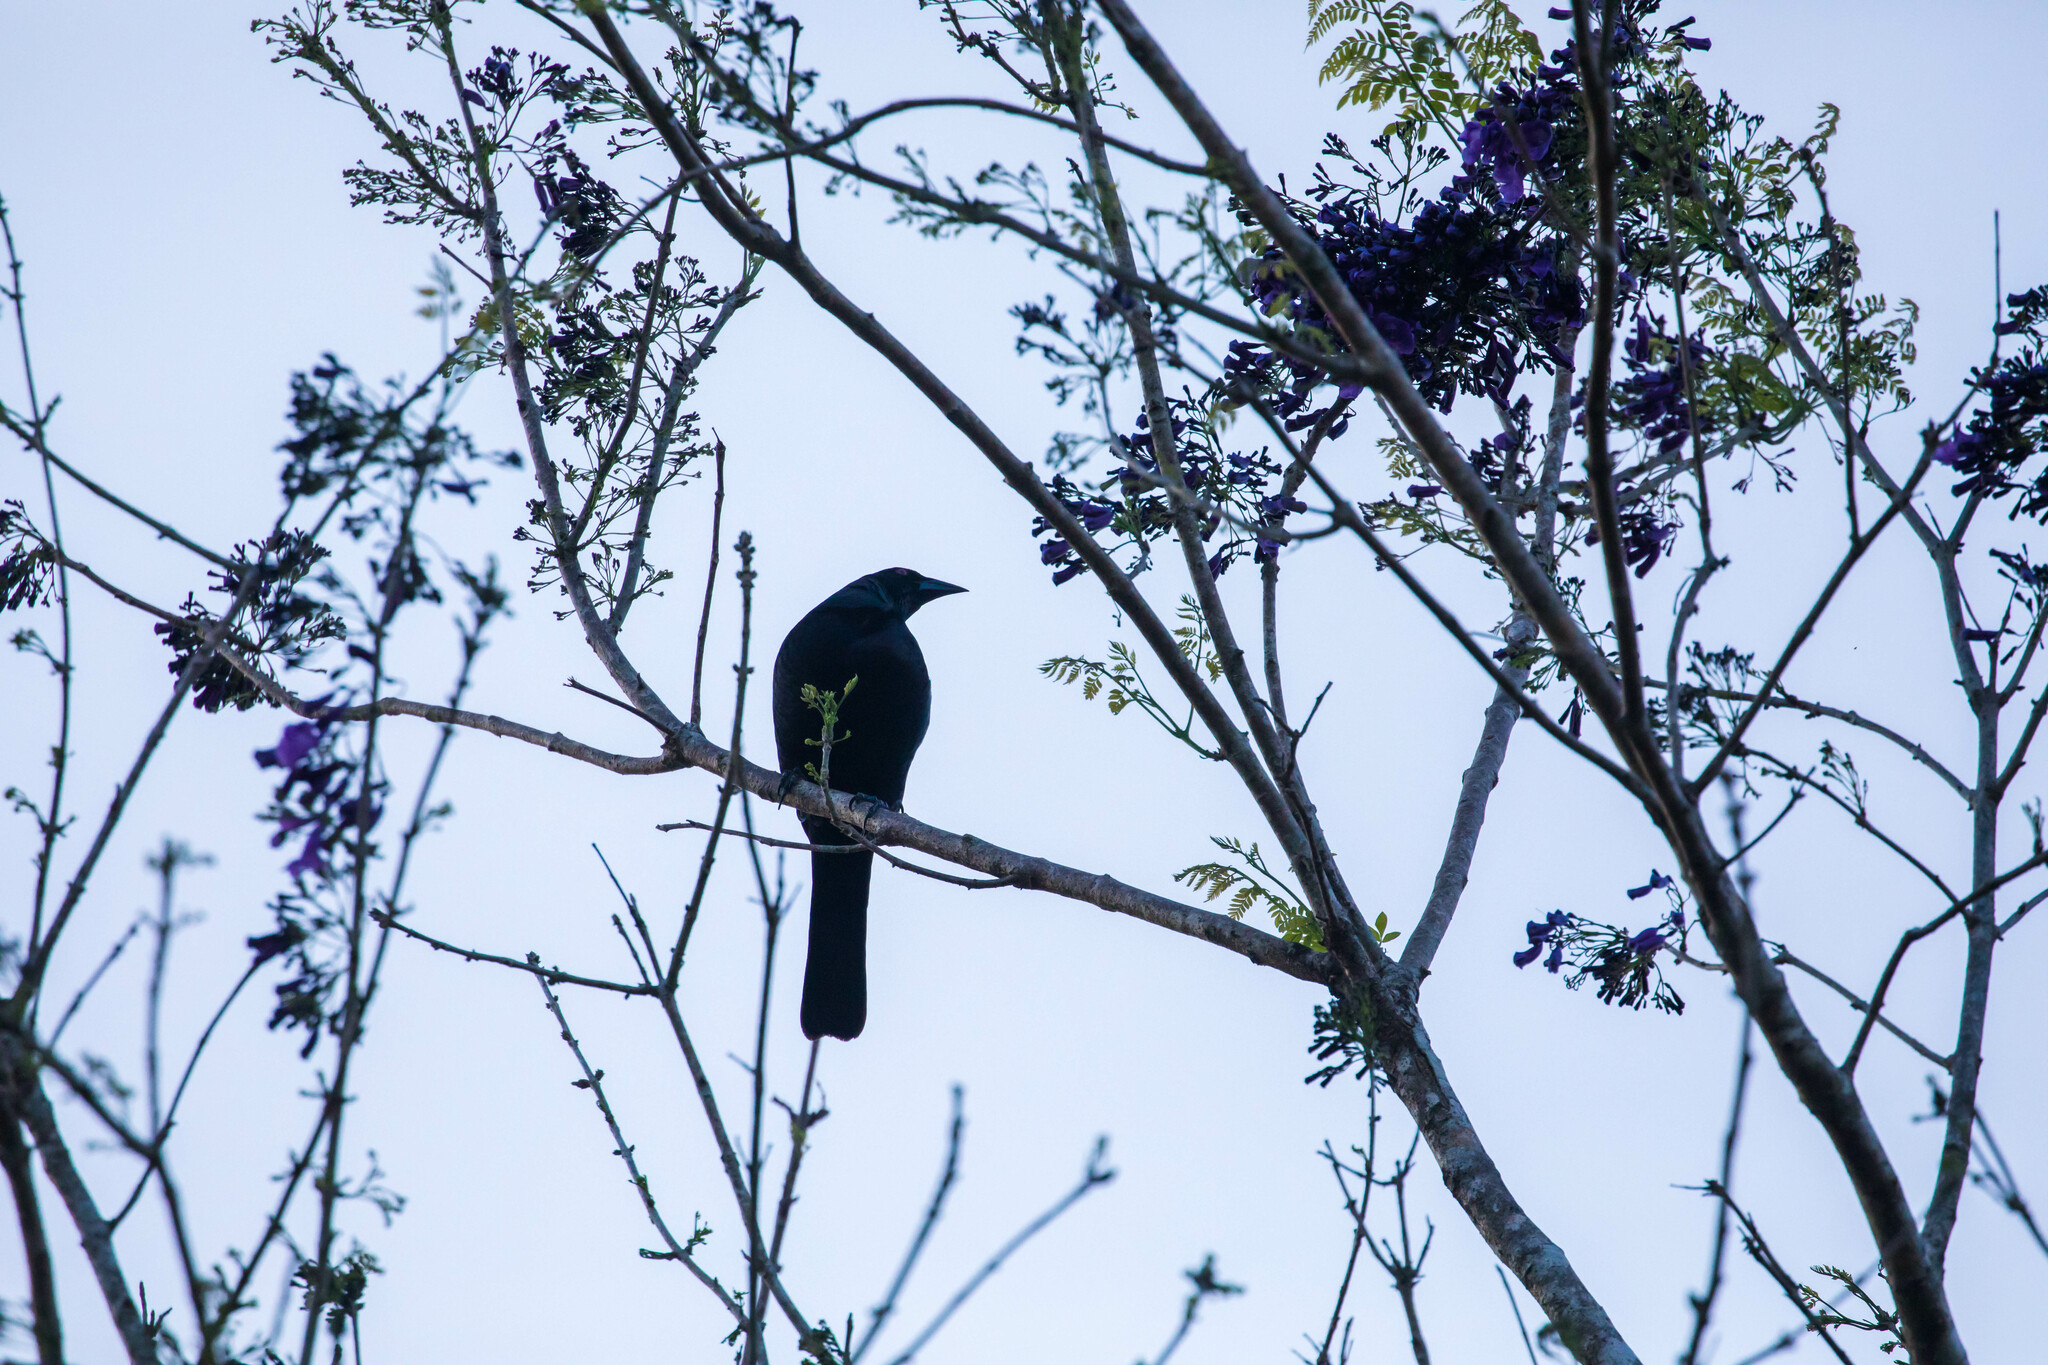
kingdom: Animalia
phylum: Chordata
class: Aves
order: Passeriformes
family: Icteridae
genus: Molothrus
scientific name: Molothrus oryzivorus
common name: Giant cowbird
